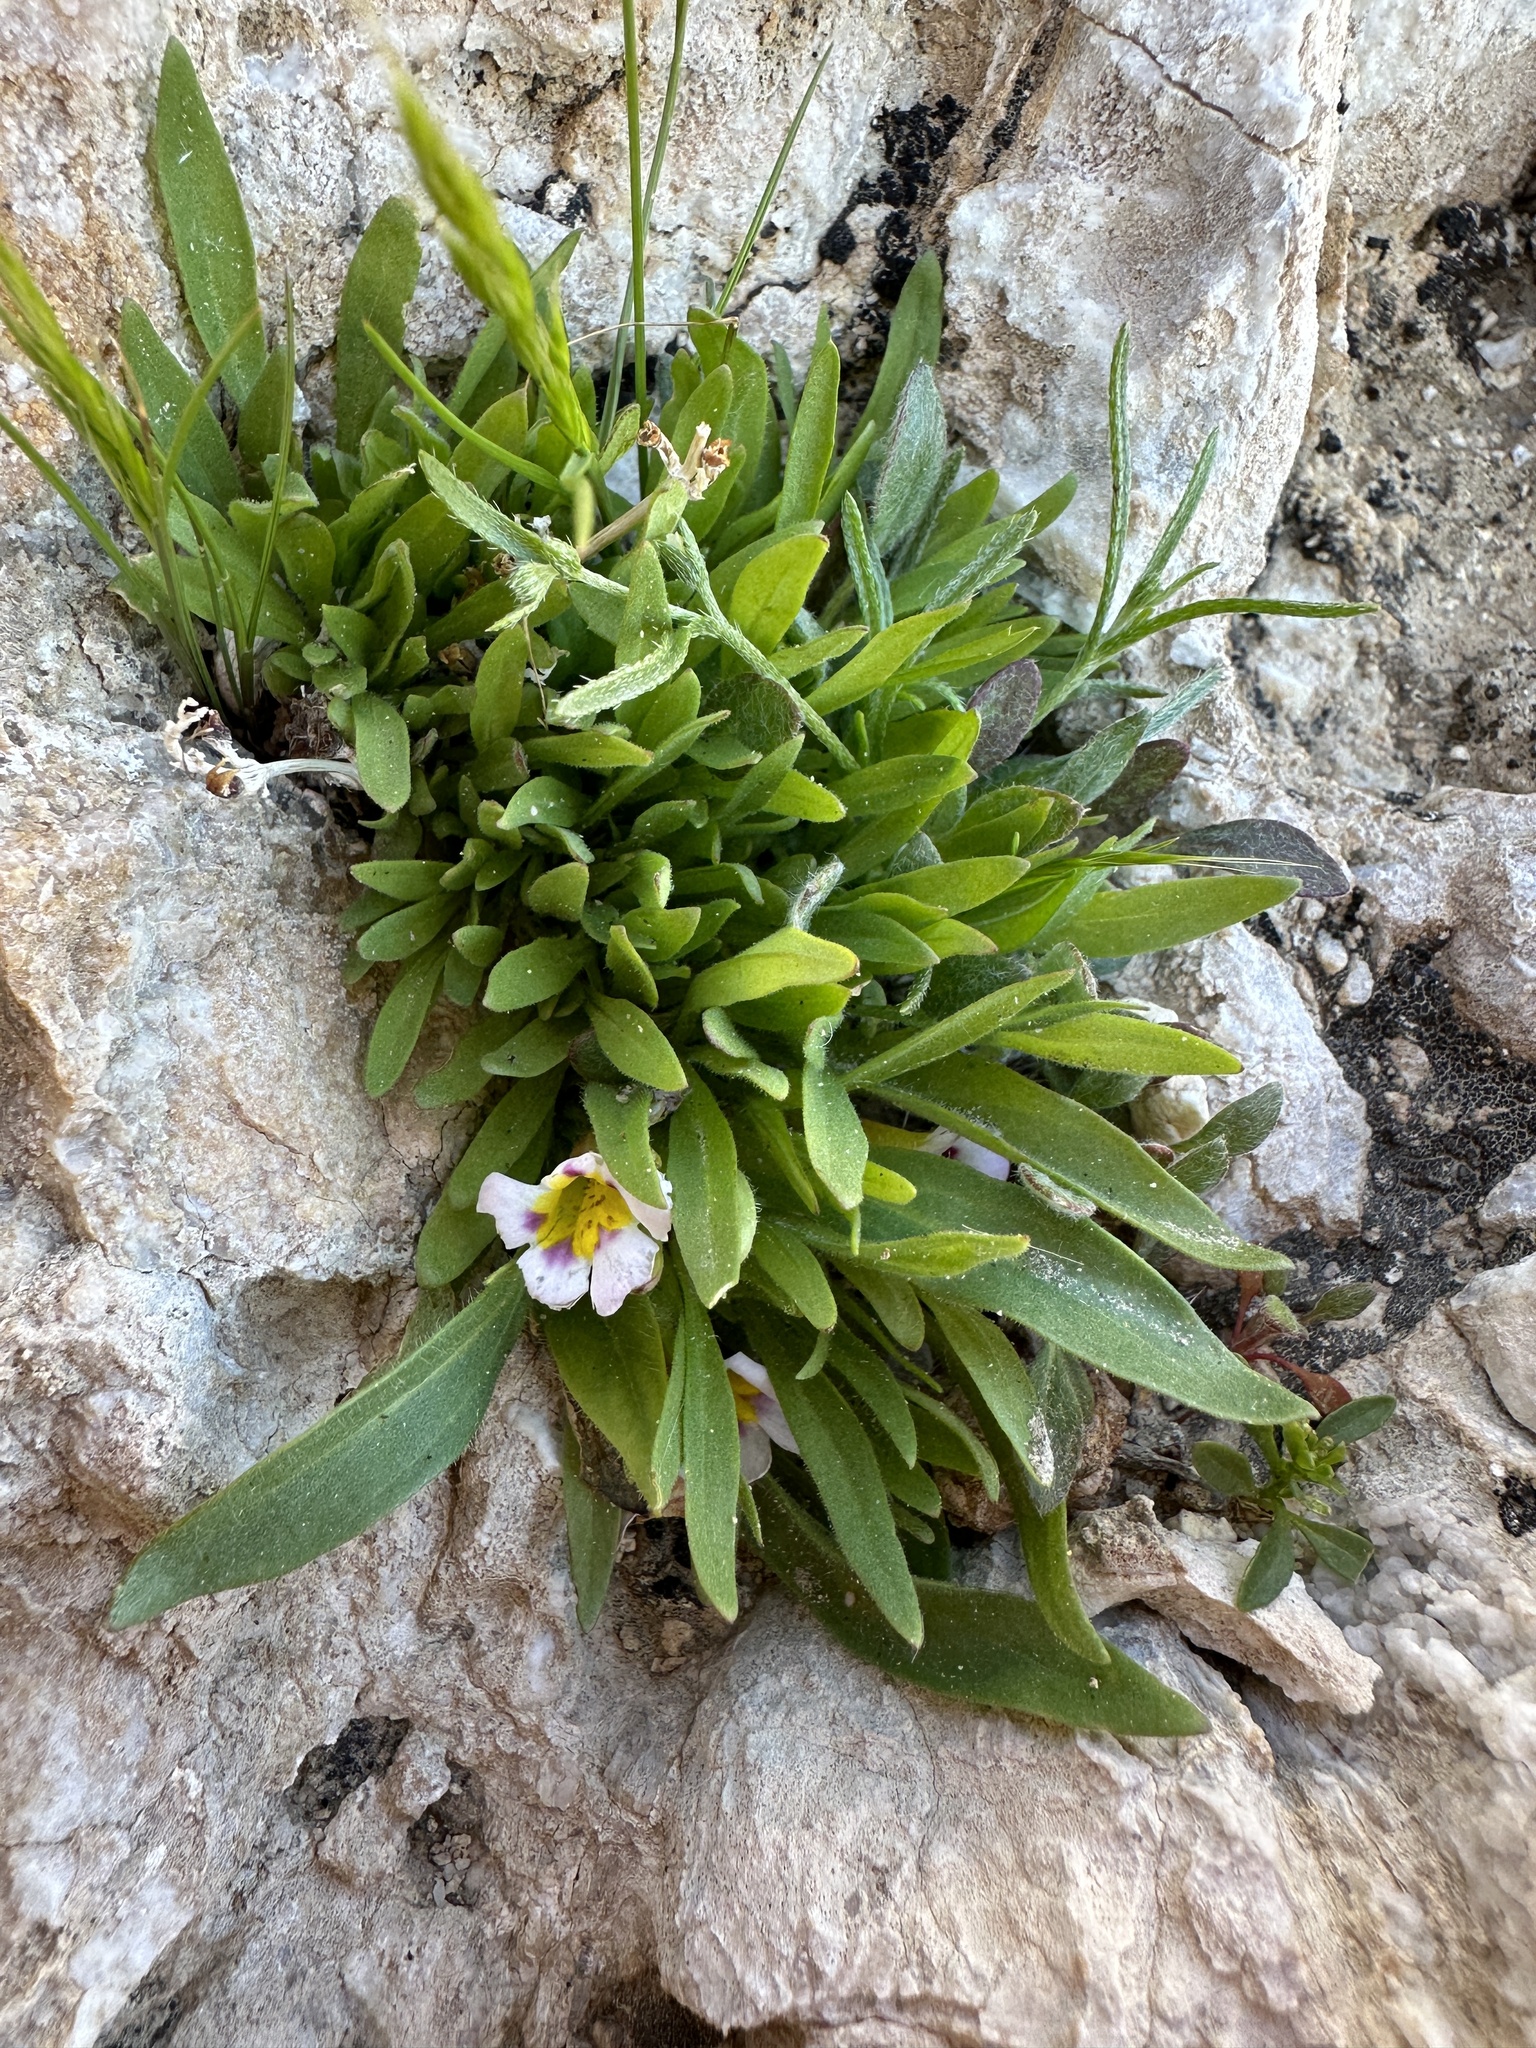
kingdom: Plantae
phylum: Tracheophyta
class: Magnoliopsida
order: Lamiales
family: Phrymaceae
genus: Diplacus
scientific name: Diplacus rupicola
